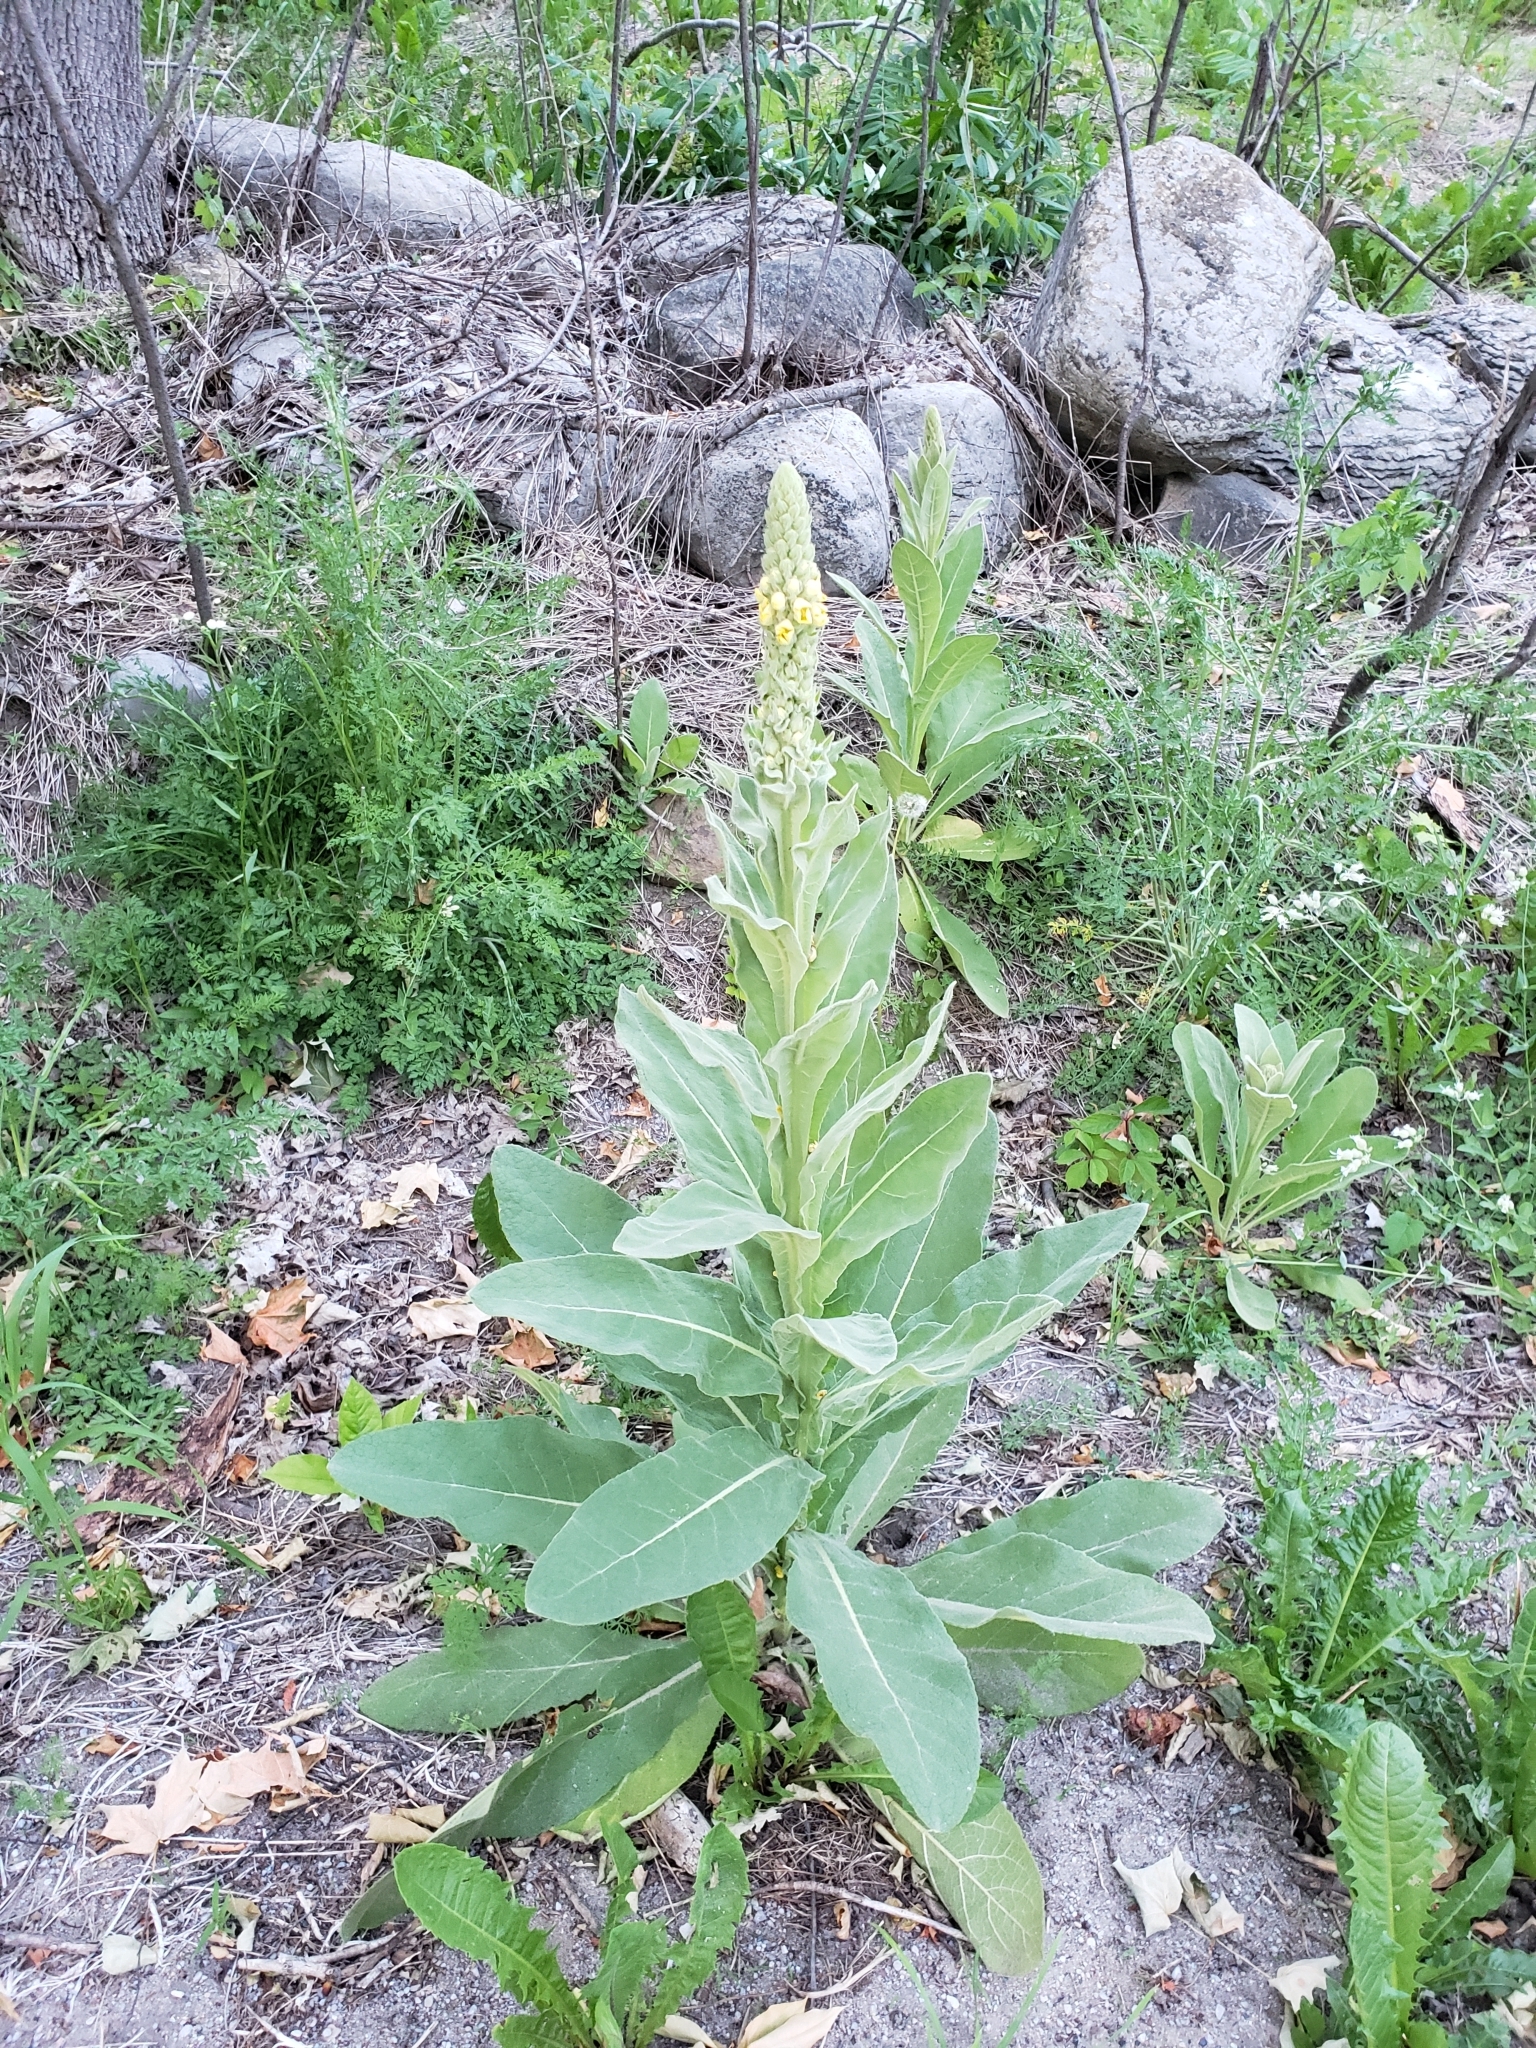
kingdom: Plantae
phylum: Tracheophyta
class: Magnoliopsida
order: Lamiales
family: Scrophulariaceae
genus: Verbascum
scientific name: Verbascum thapsus
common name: Common mullein
